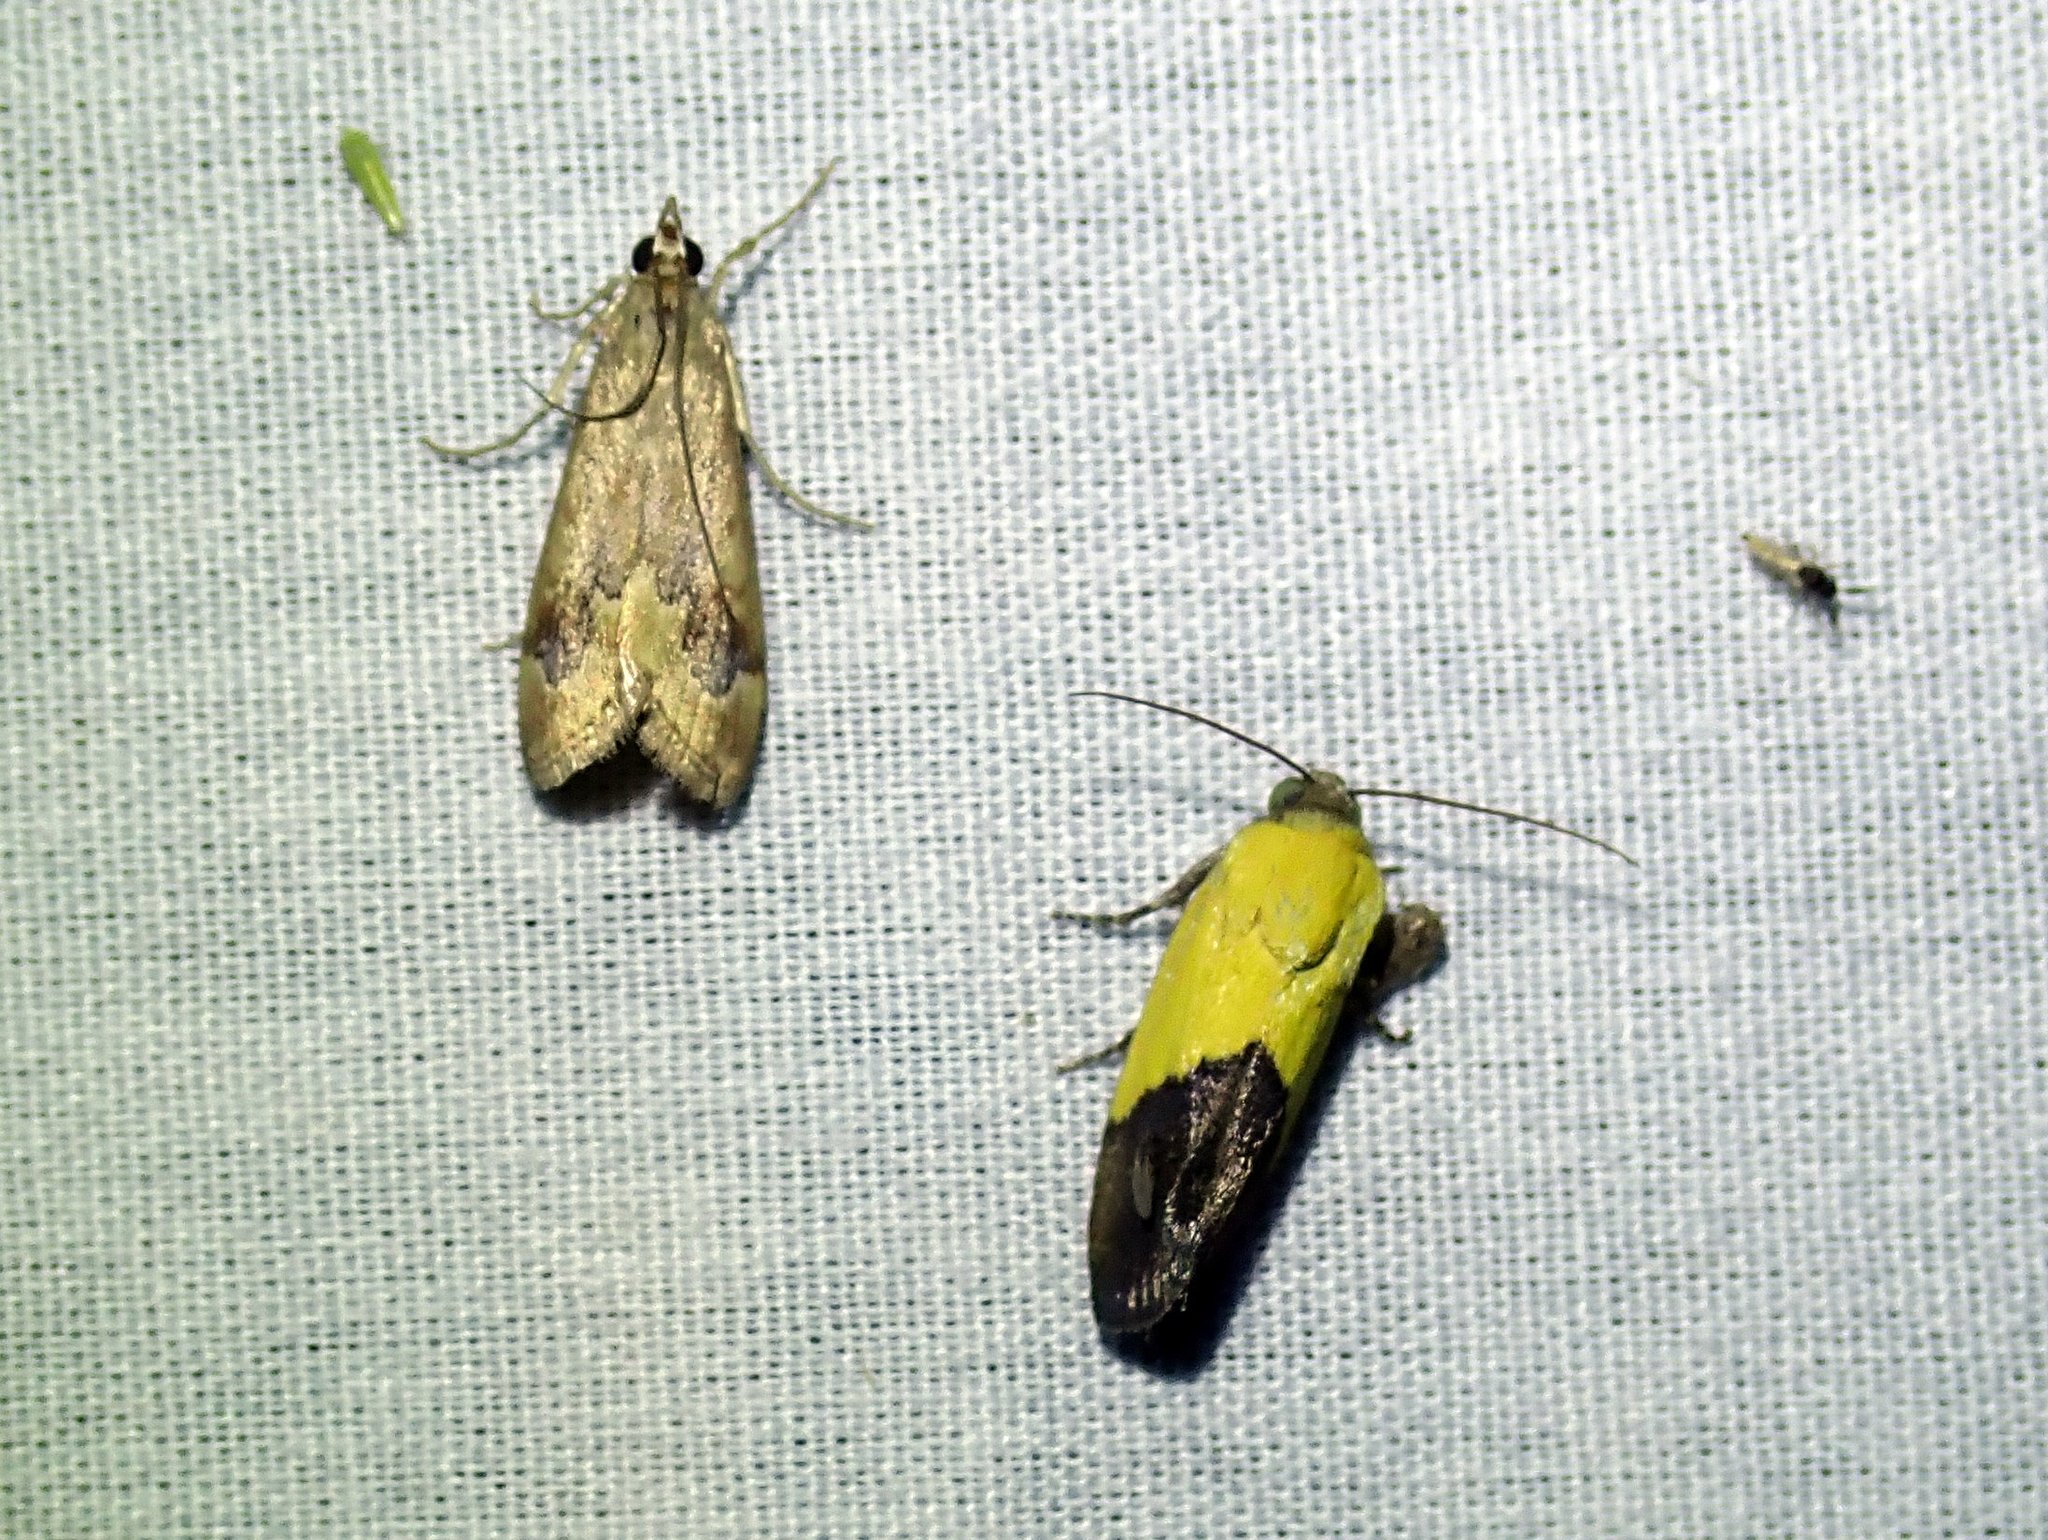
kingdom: Animalia
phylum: Arthropoda
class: Insecta
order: Lepidoptera
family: Noctuidae
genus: Acontia
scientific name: Acontia semiflava
